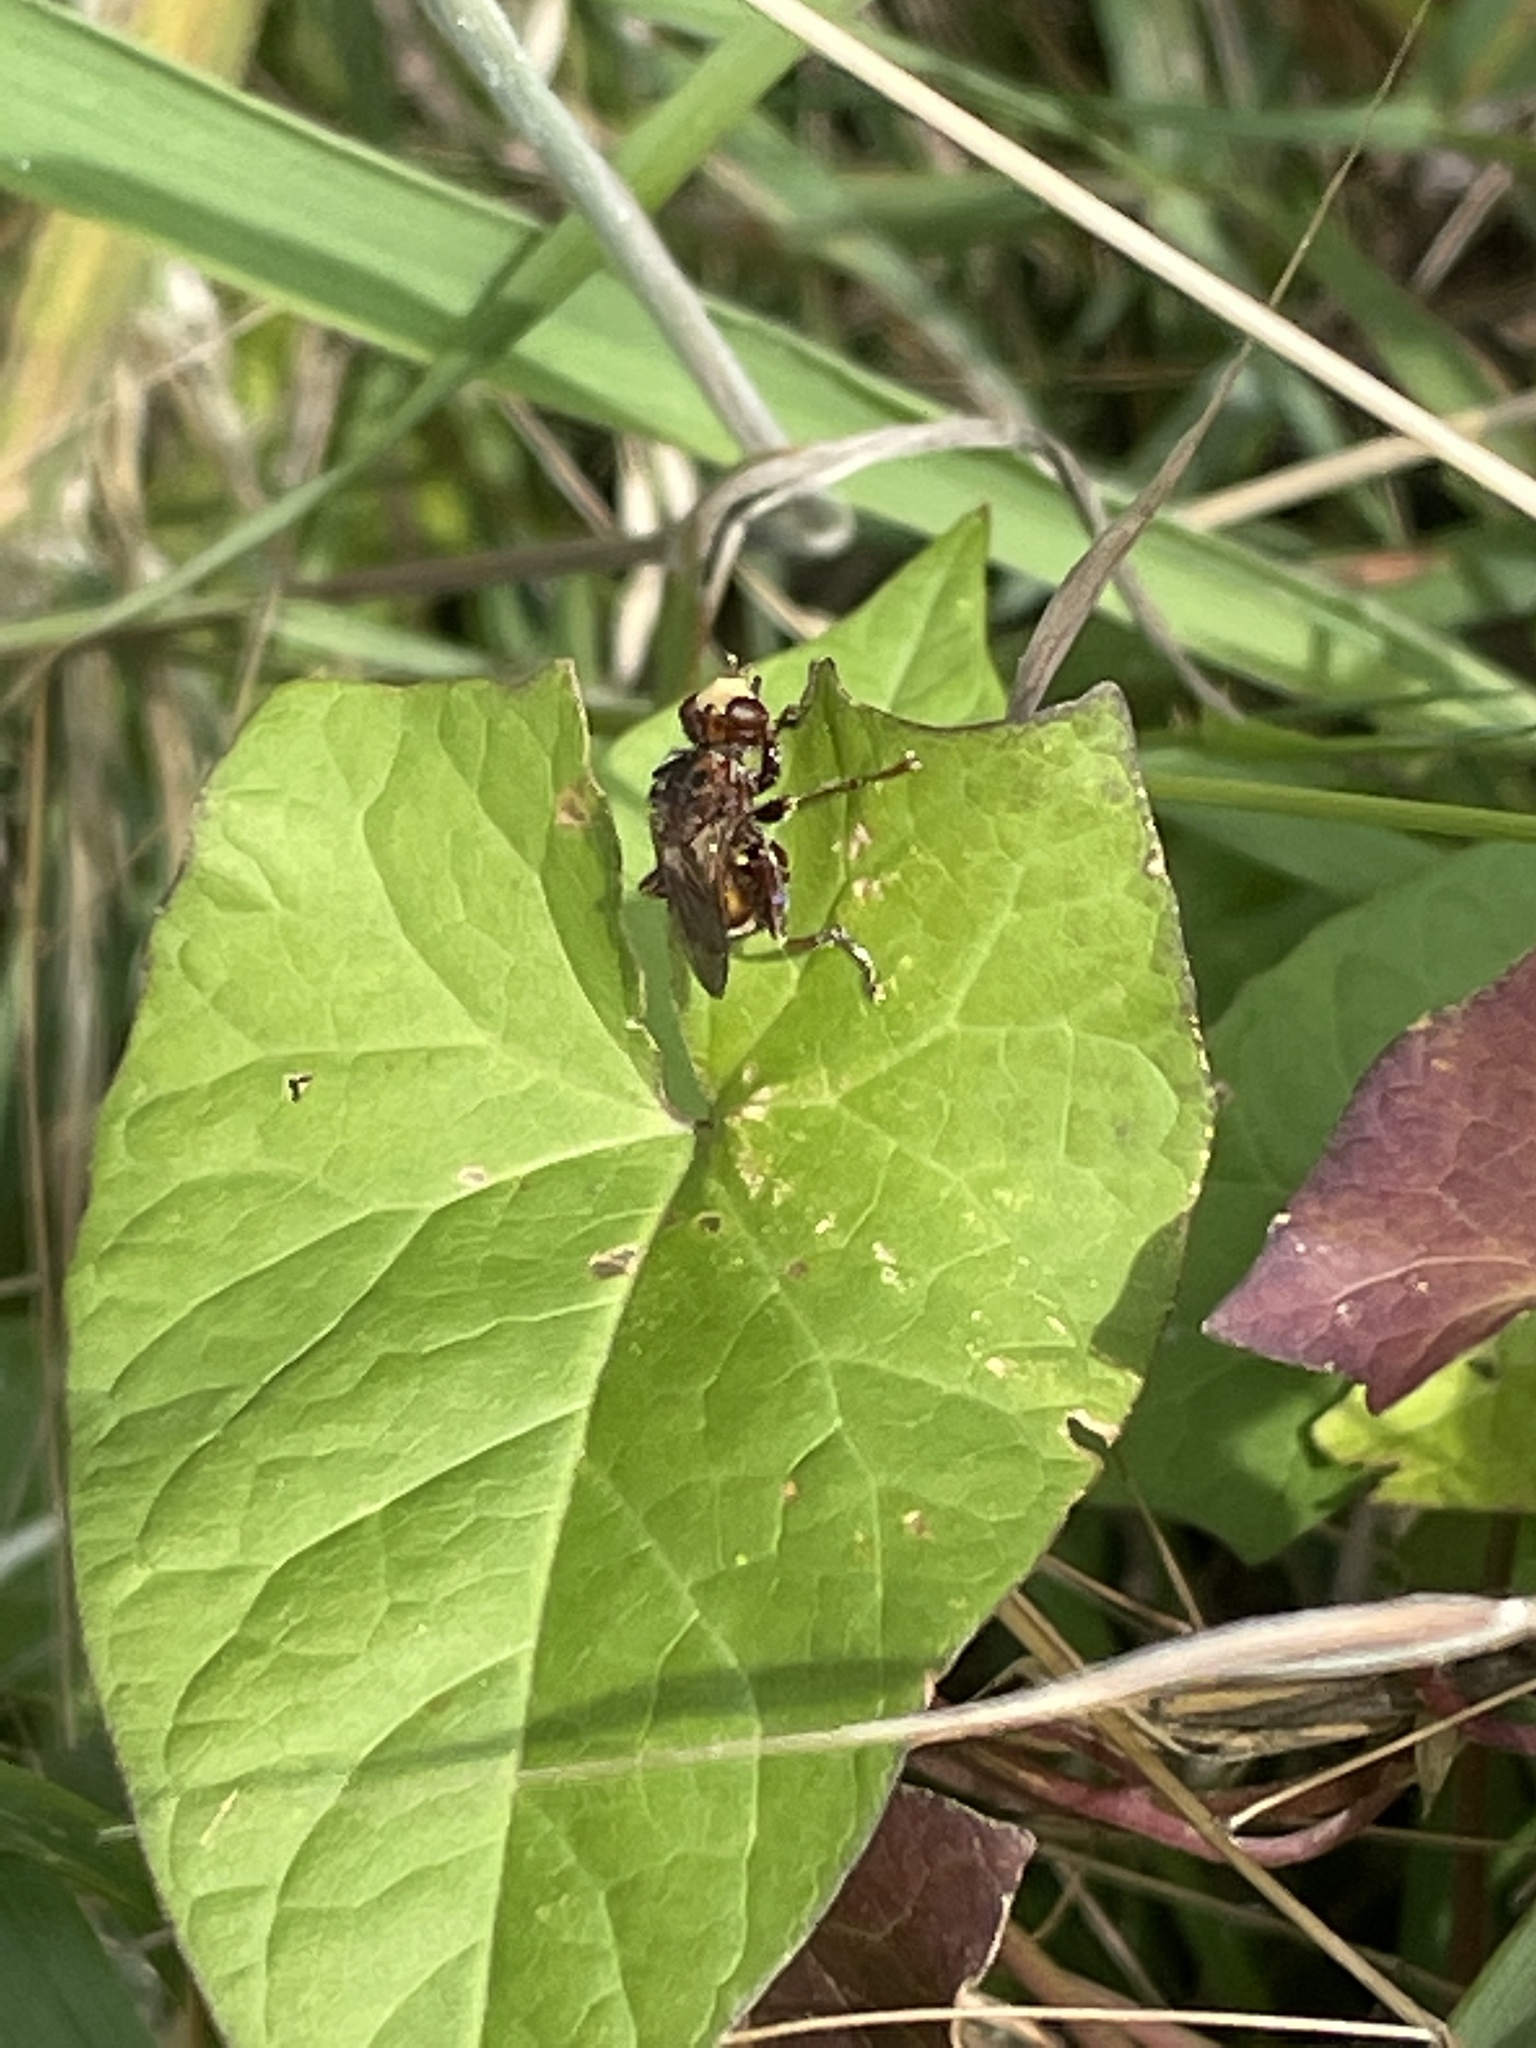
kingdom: Animalia
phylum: Arthropoda
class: Insecta
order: Diptera
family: Conopidae
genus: Sicus
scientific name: Sicus ferrugineus
